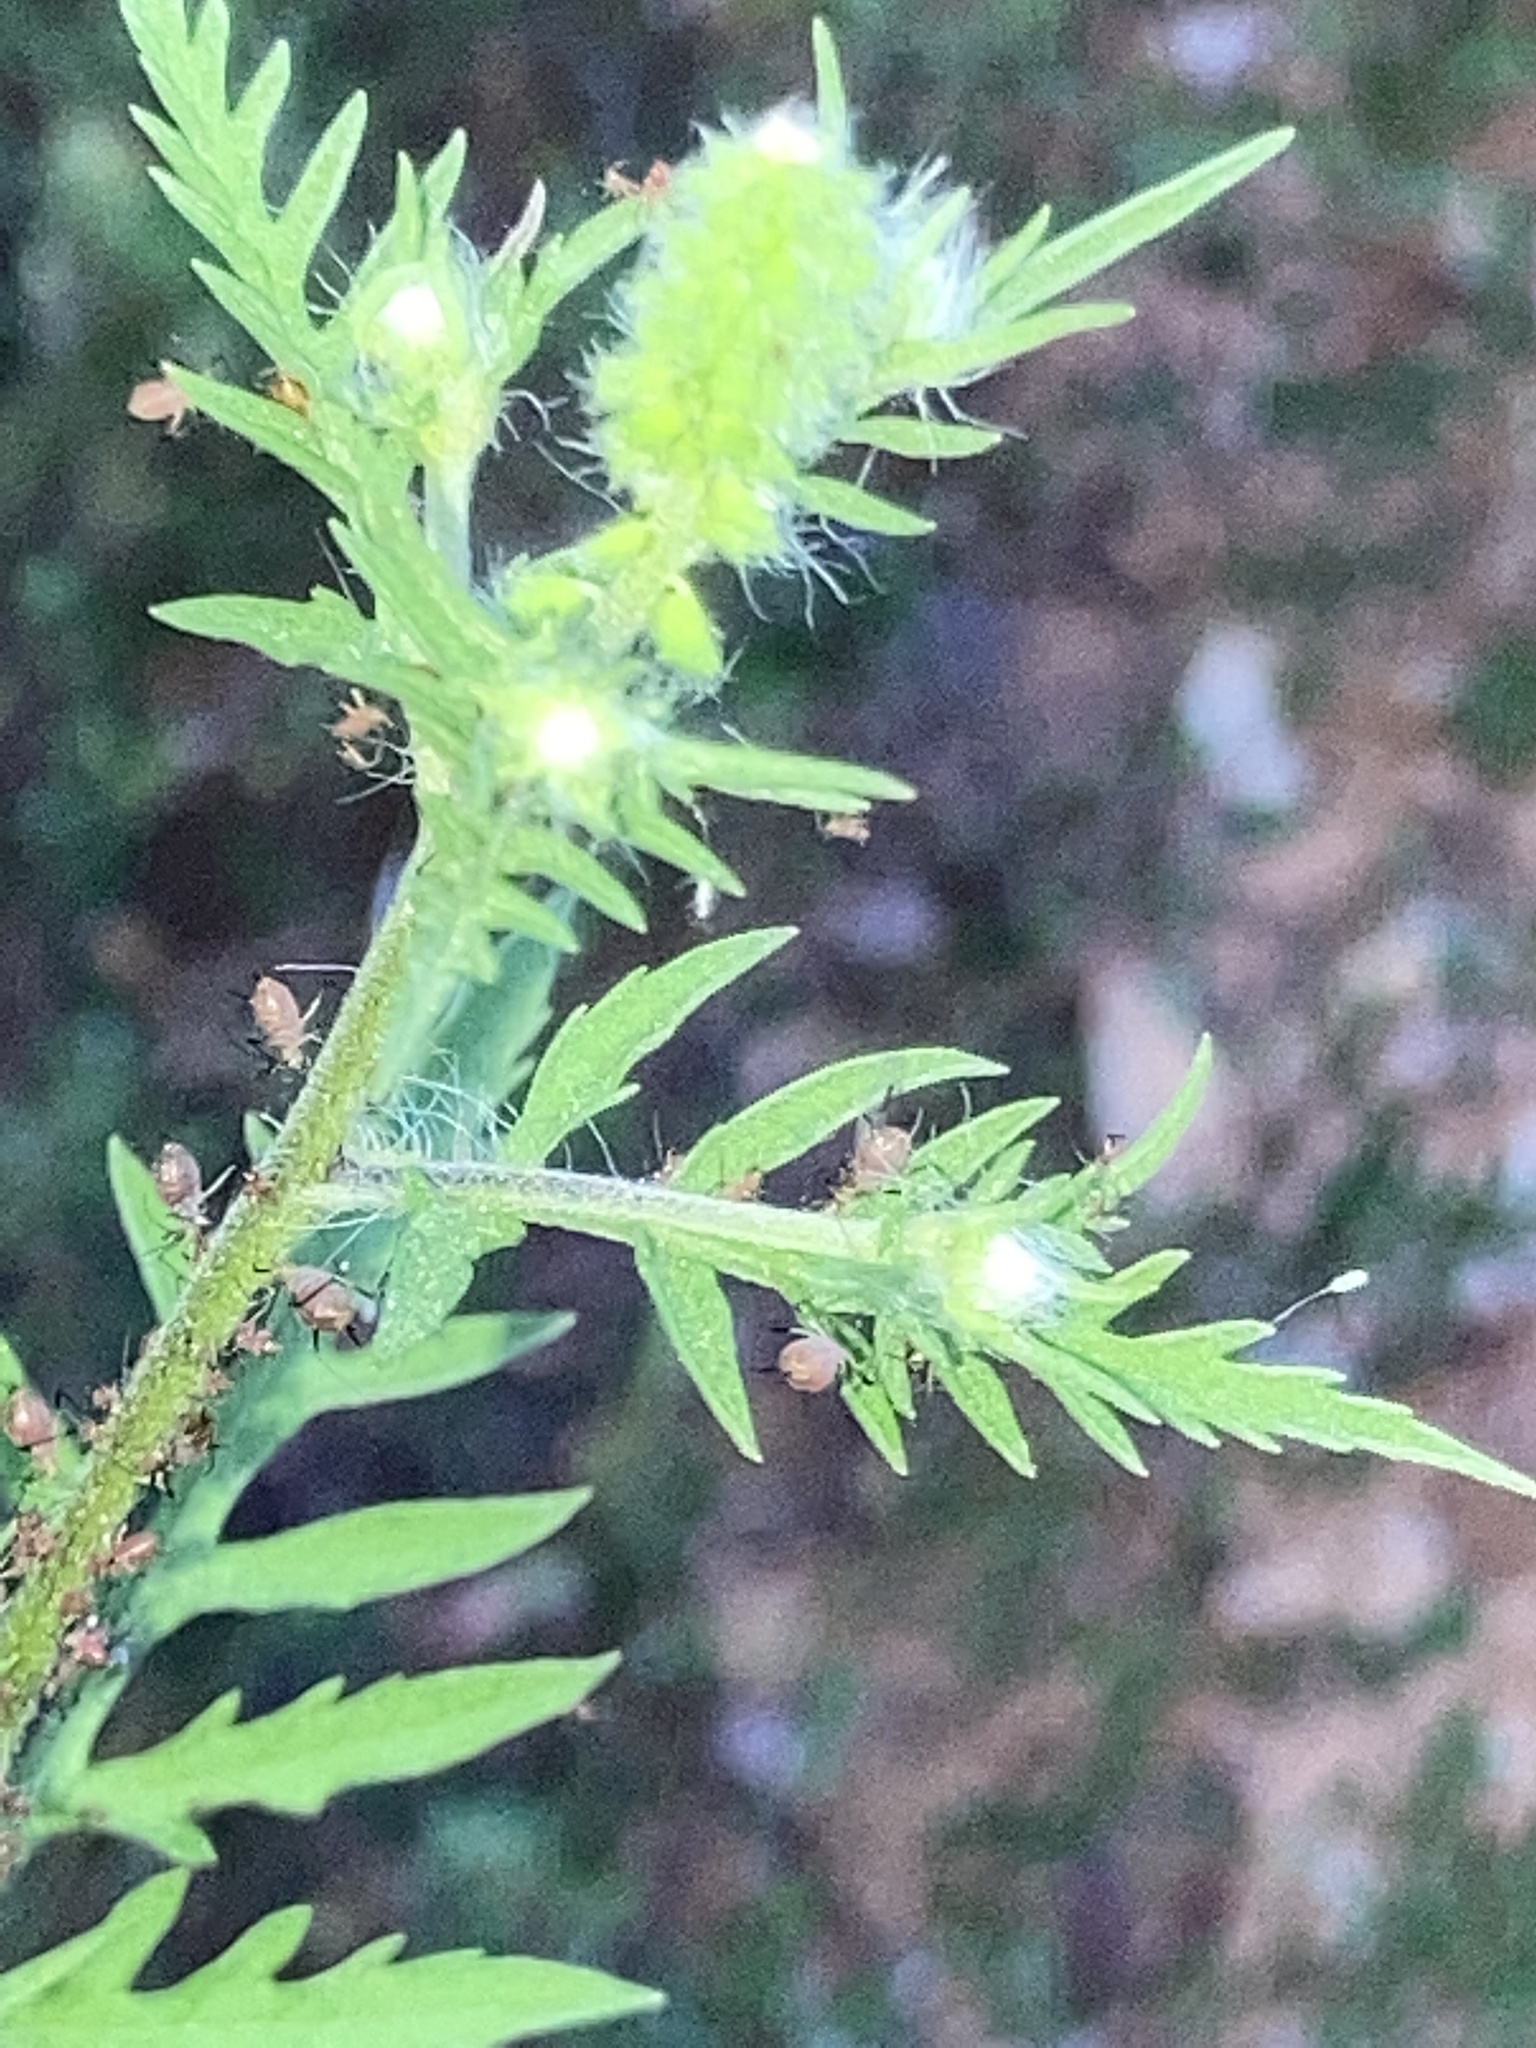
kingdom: Plantae
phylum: Tracheophyta
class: Magnoliopsida
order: Asterales
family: Asteraceae
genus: Ambrosia
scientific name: Ambrosia artemisiifolia
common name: Annual ragweed
